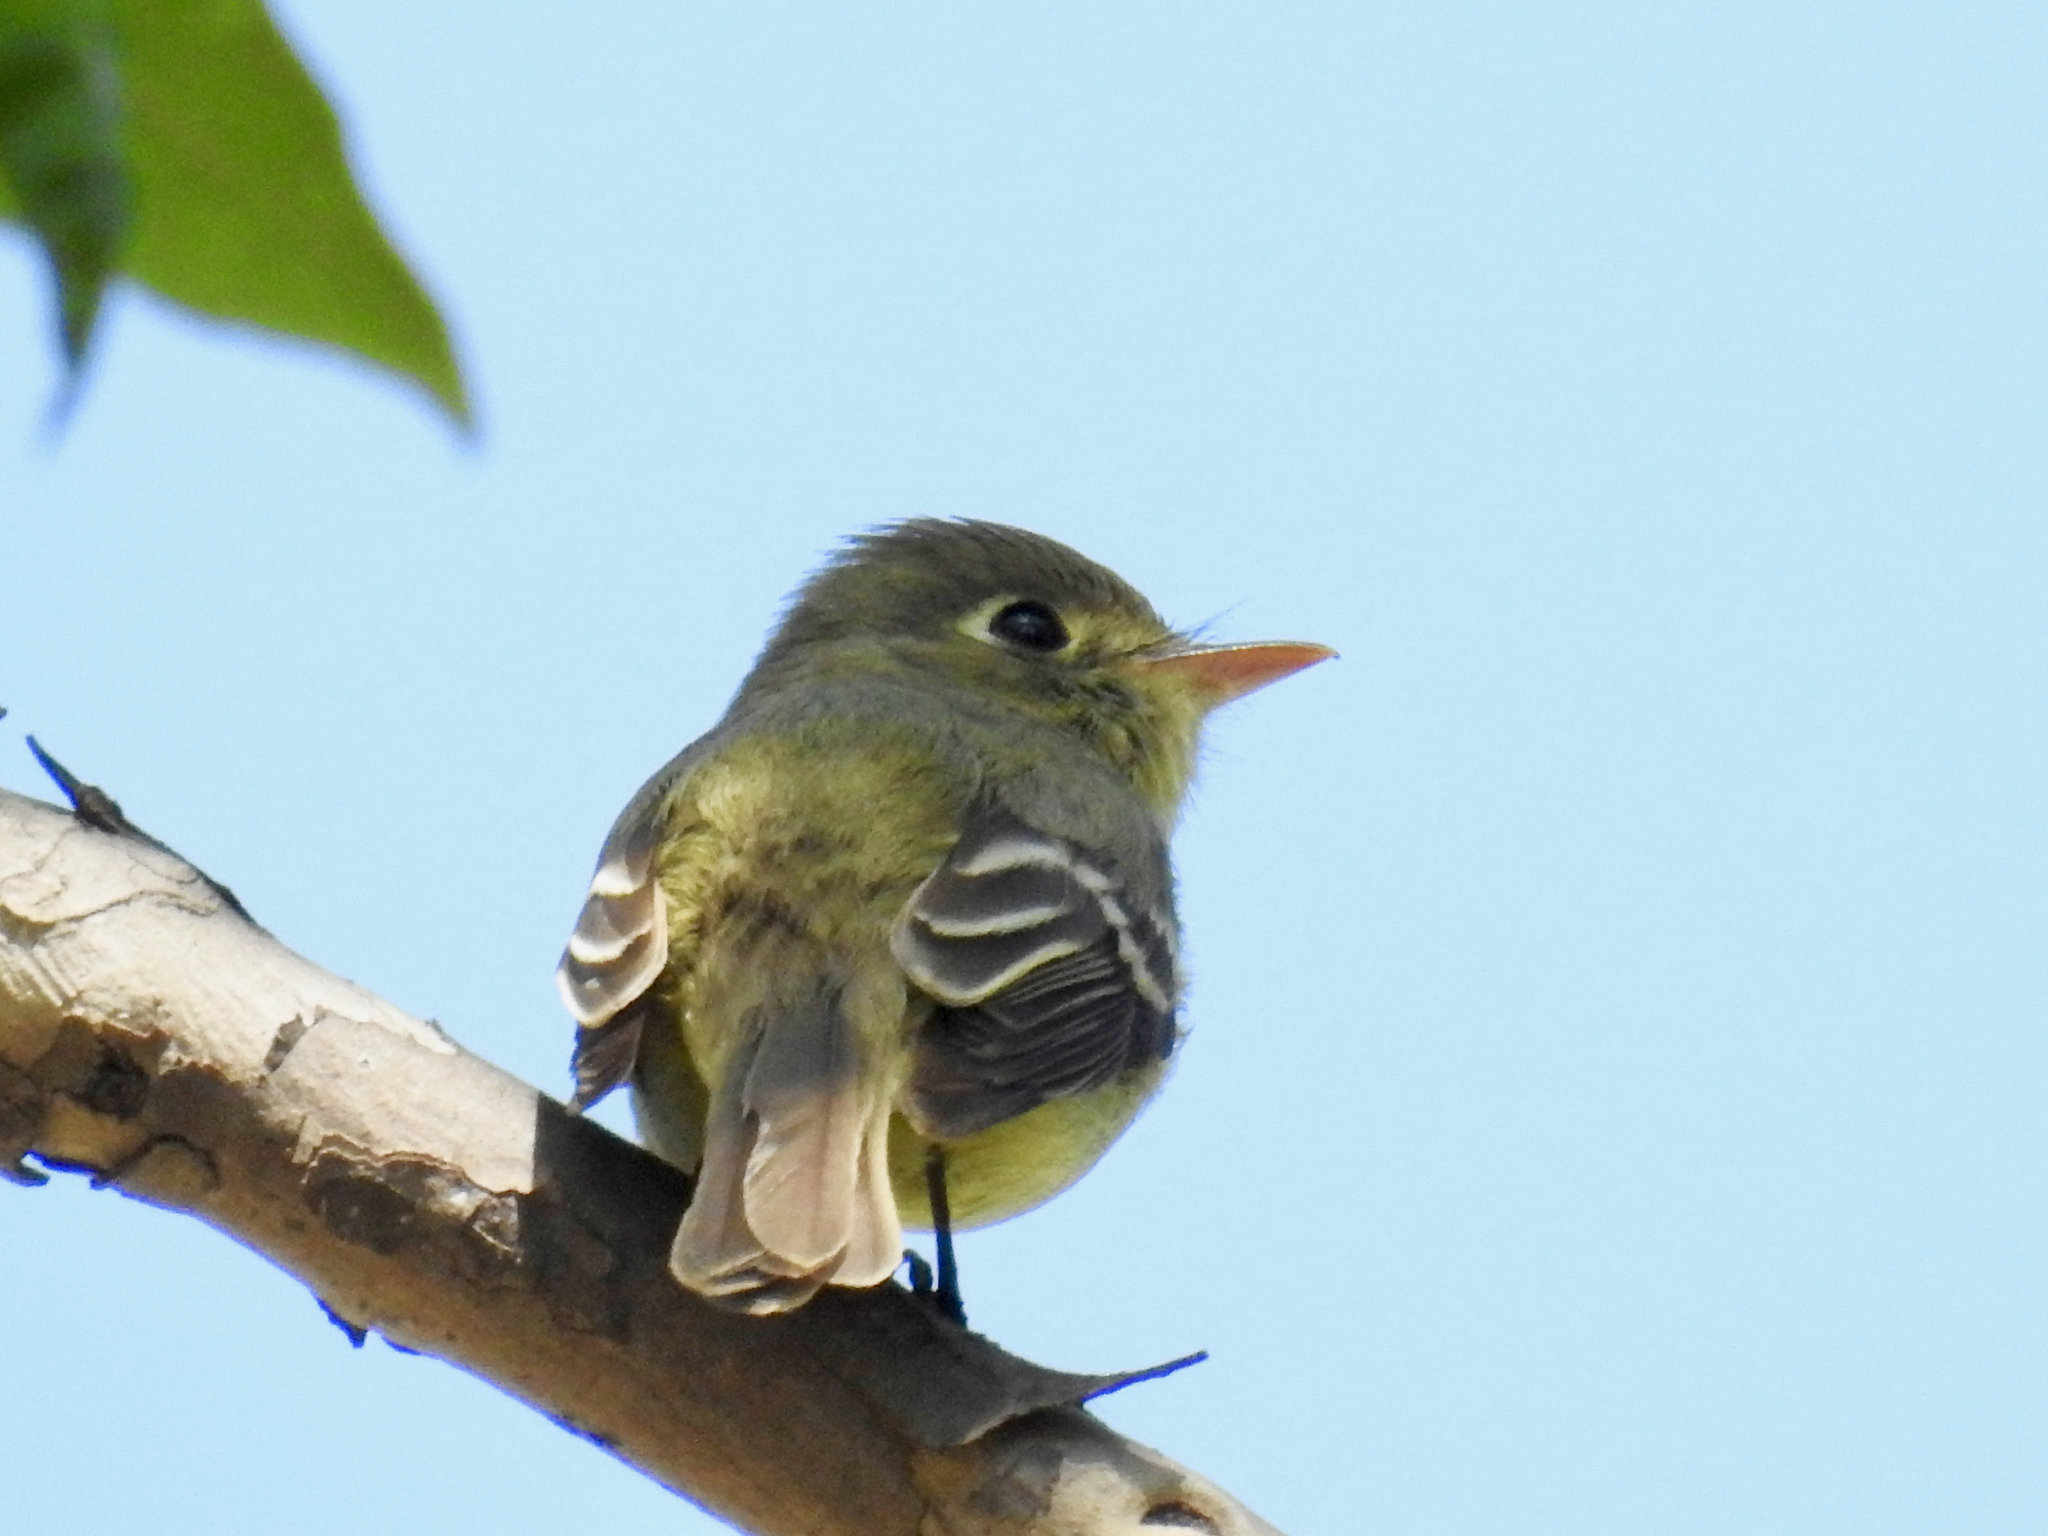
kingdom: Animalia
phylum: Chordata
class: Aves
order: Passeriformes
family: Tyrannidae
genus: Empidonax
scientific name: Empidonax difficilis
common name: Pacific-slope flycatcher
